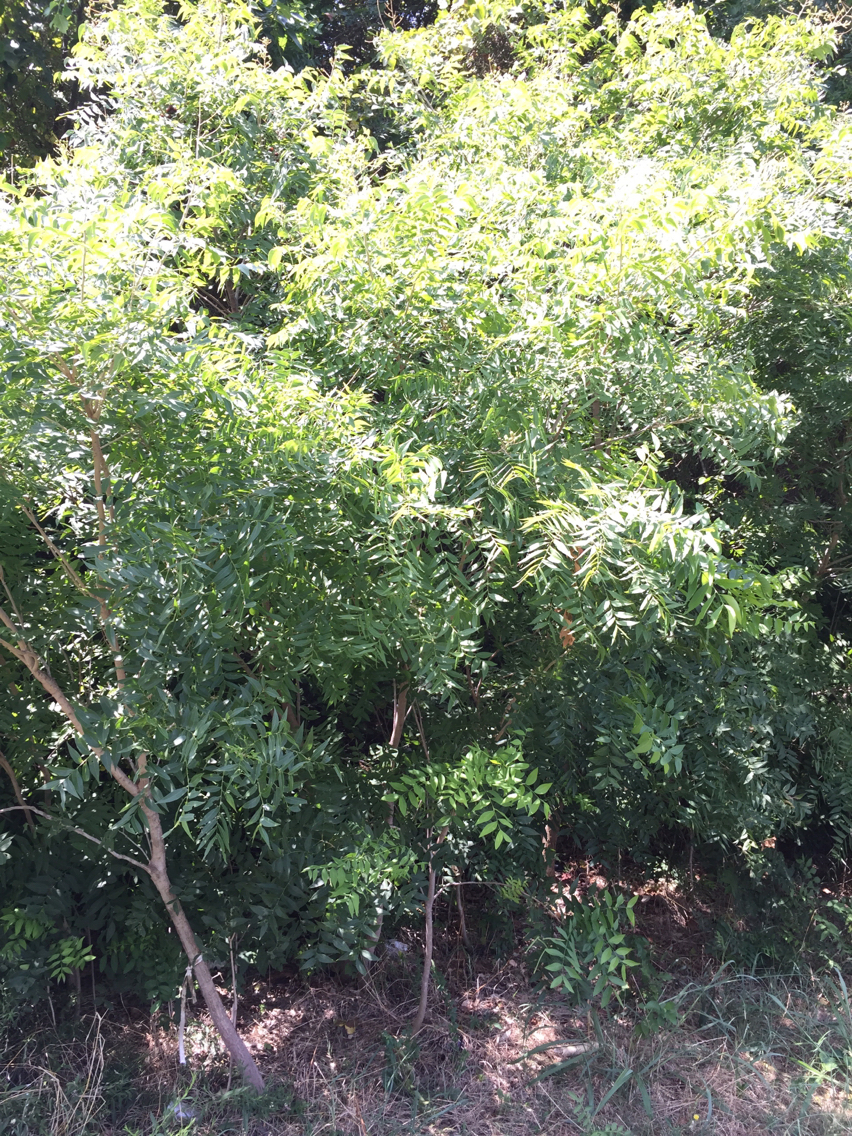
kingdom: Plantae
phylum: Tracheophyta
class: Magnoliopsida
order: Sapindales
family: Sapindaceae
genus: Sapindus
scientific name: Sapindus drummondii
